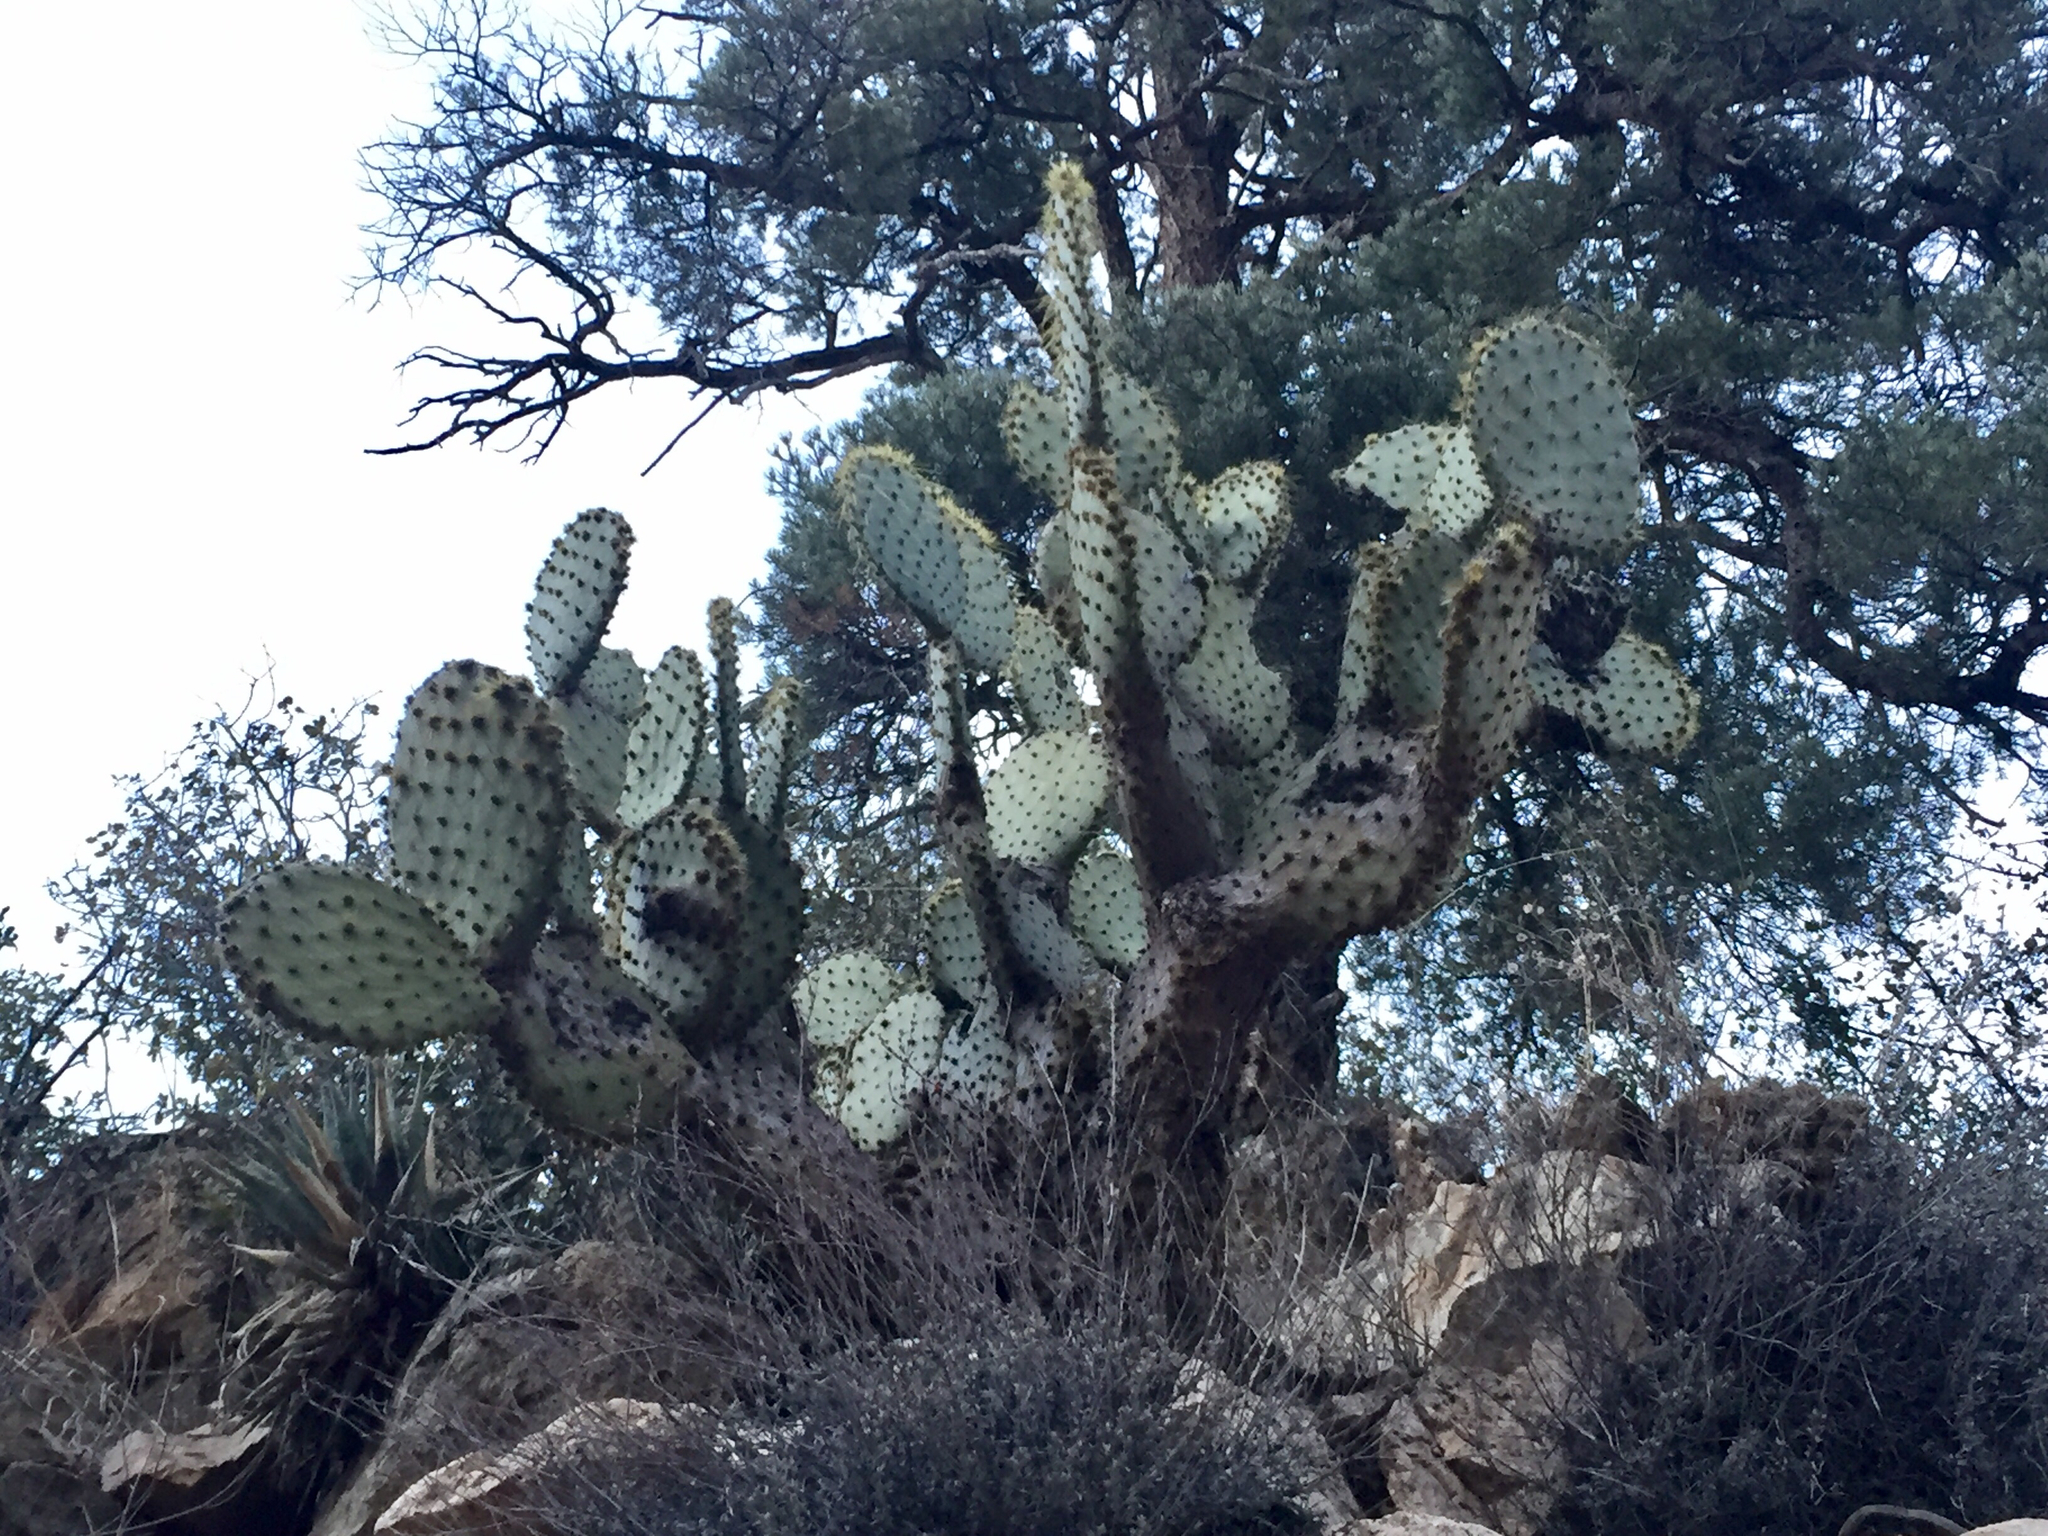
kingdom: Plantae
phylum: Tracheophyta
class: Magnoliopsida
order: Caryophyllales
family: Cactaceae
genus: Opuntia
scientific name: Opuntia chlorotica
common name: Dollar-joint prickly-pear
